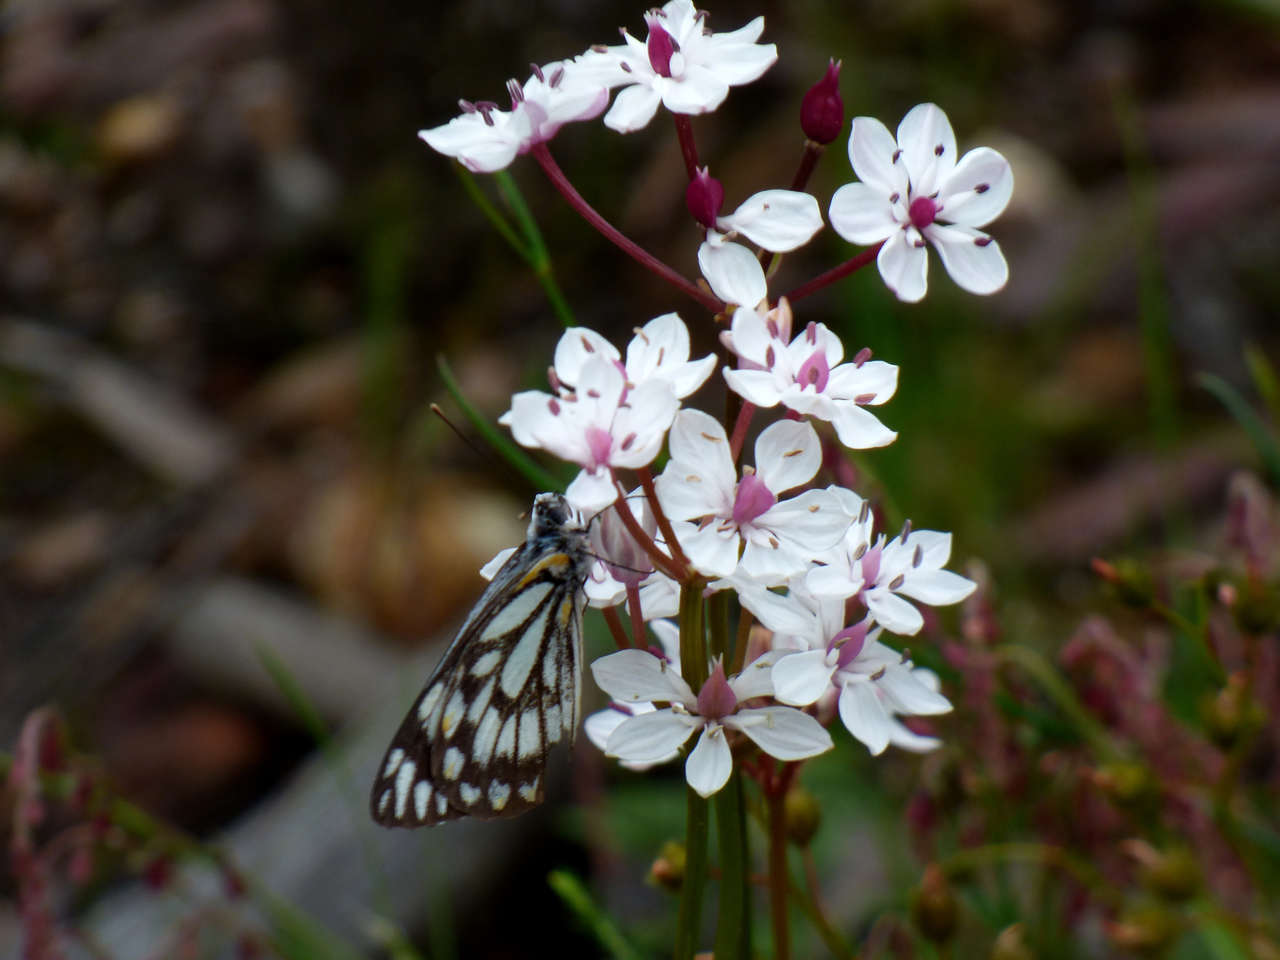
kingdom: Plantae
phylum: Tracheophyta
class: Liliopsida
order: Liliales
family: Colchicaceae
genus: Burchardia
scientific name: Burchardia umbellata
